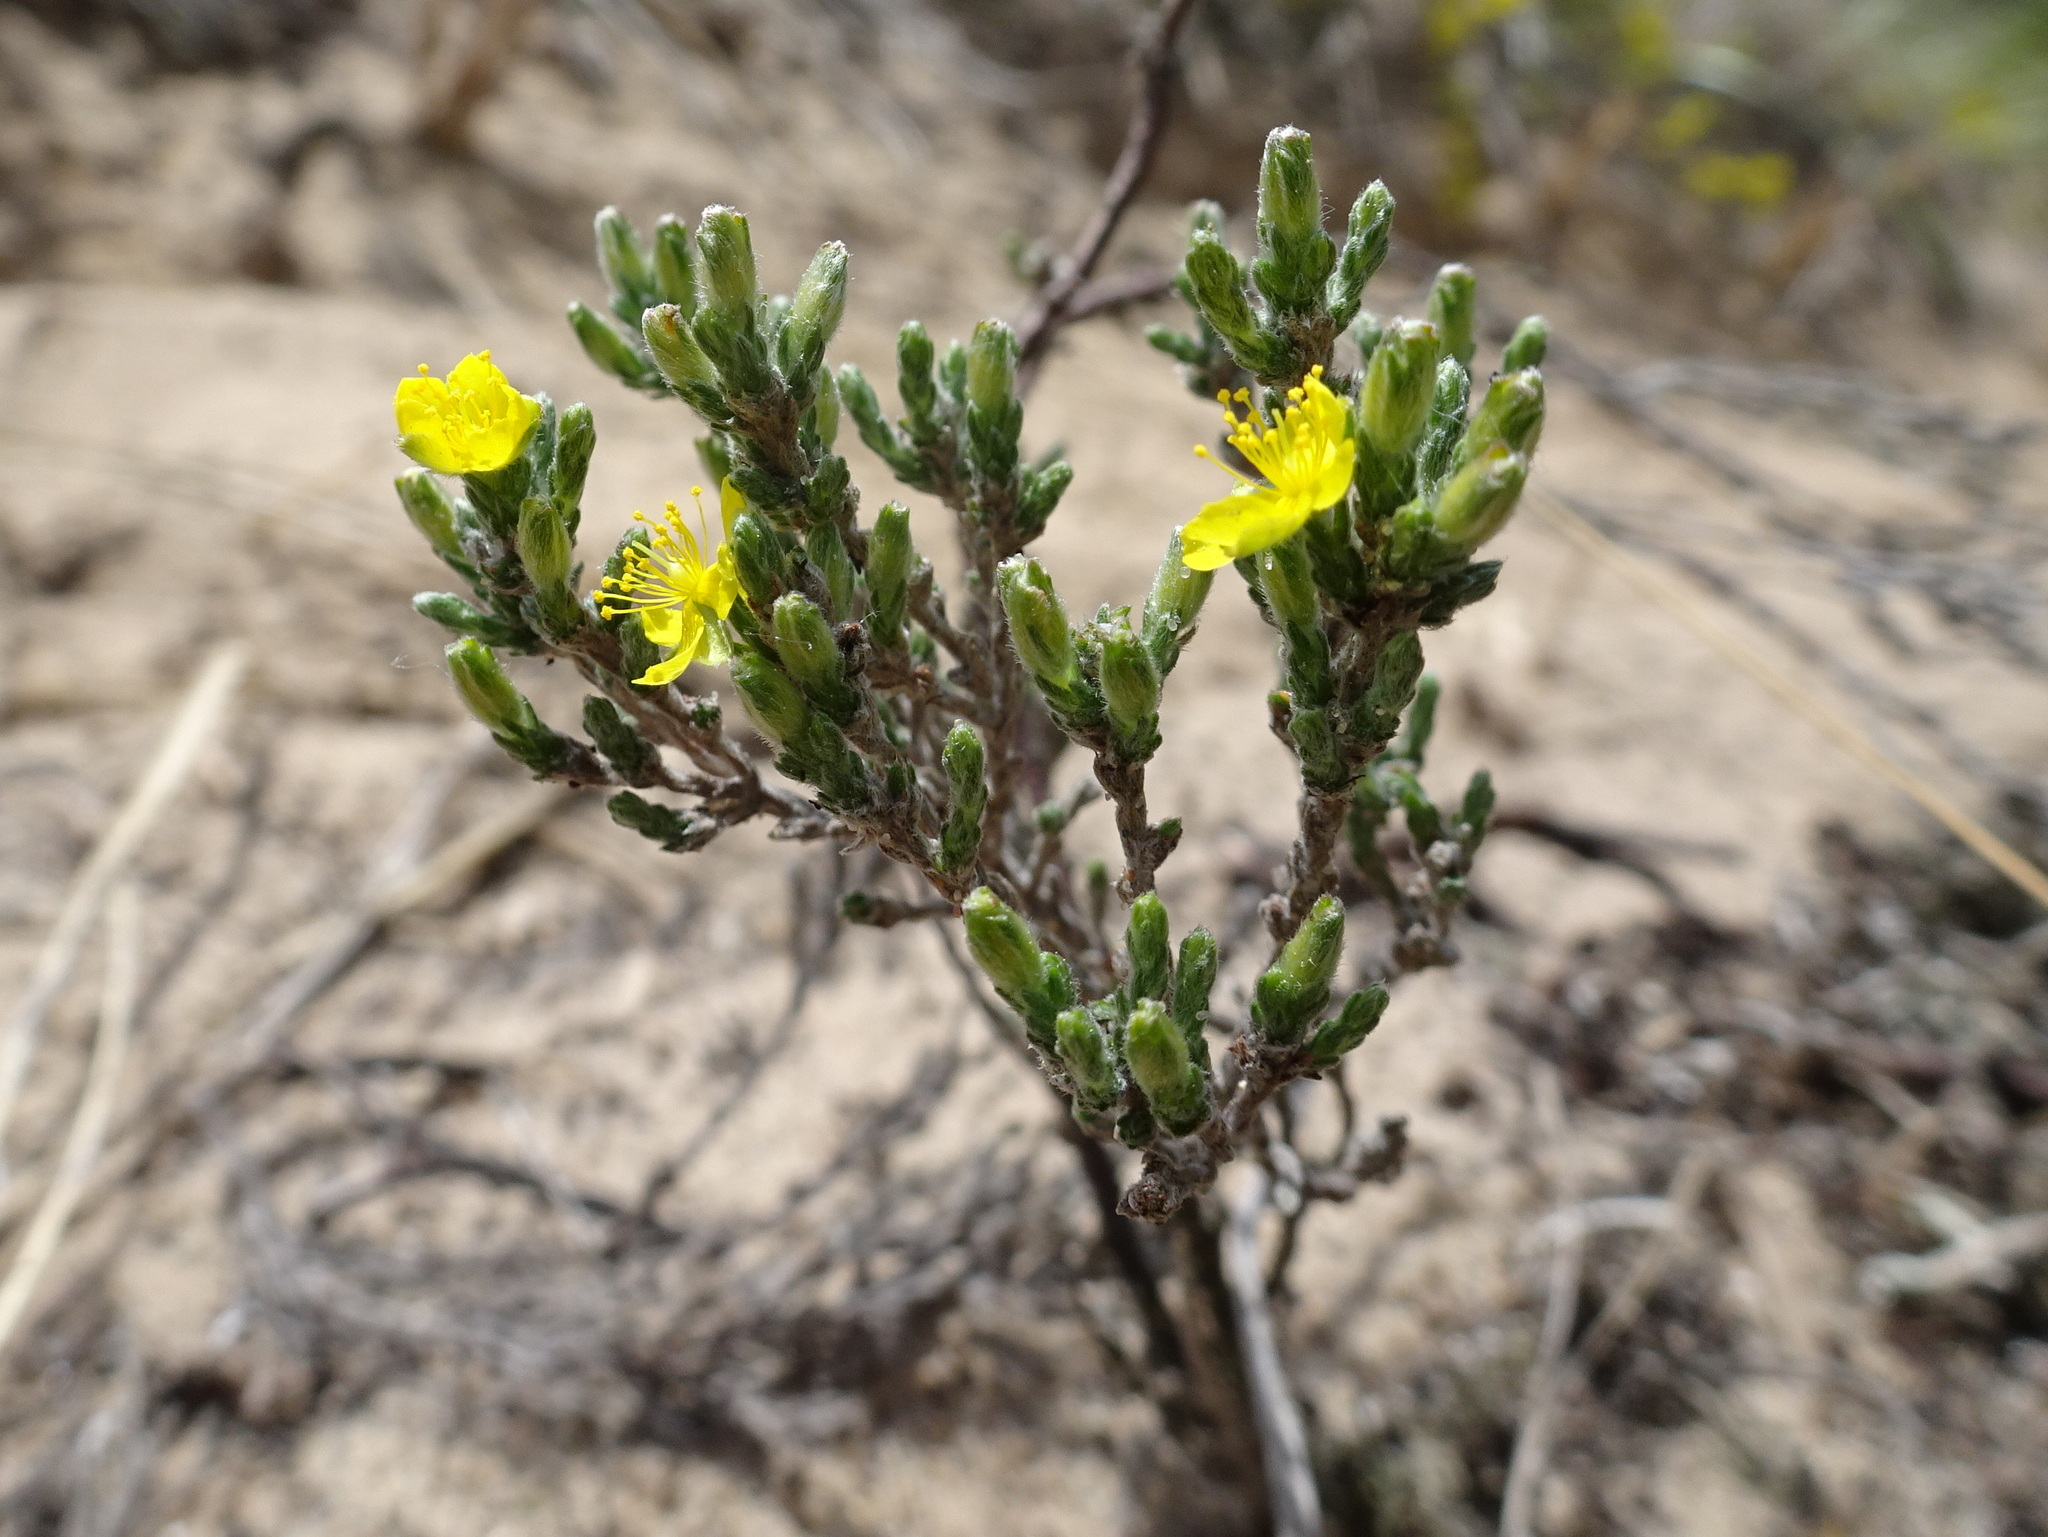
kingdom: Plantae
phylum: Tracheophyta
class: Magnoliopsida
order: Malvales
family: Cistaceae
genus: Hudsonia
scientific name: Hudsonia tomentosa
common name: Beach-heath
